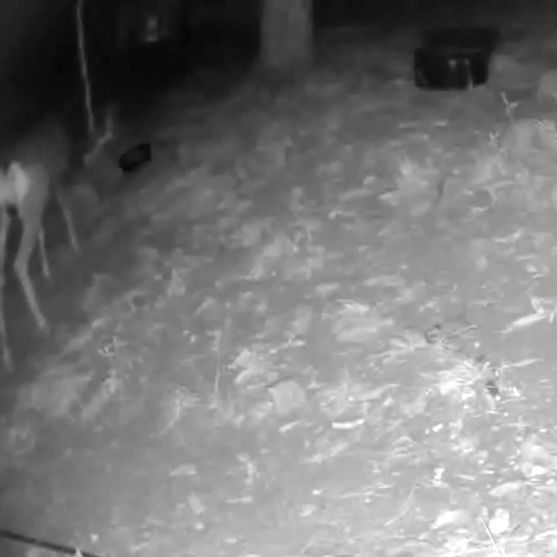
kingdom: Animalia
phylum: Chordata
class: Mammalia
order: Artiodactyla
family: Cervidae
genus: Odocoileus
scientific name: Odocoileus hemionus
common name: Mule deer
